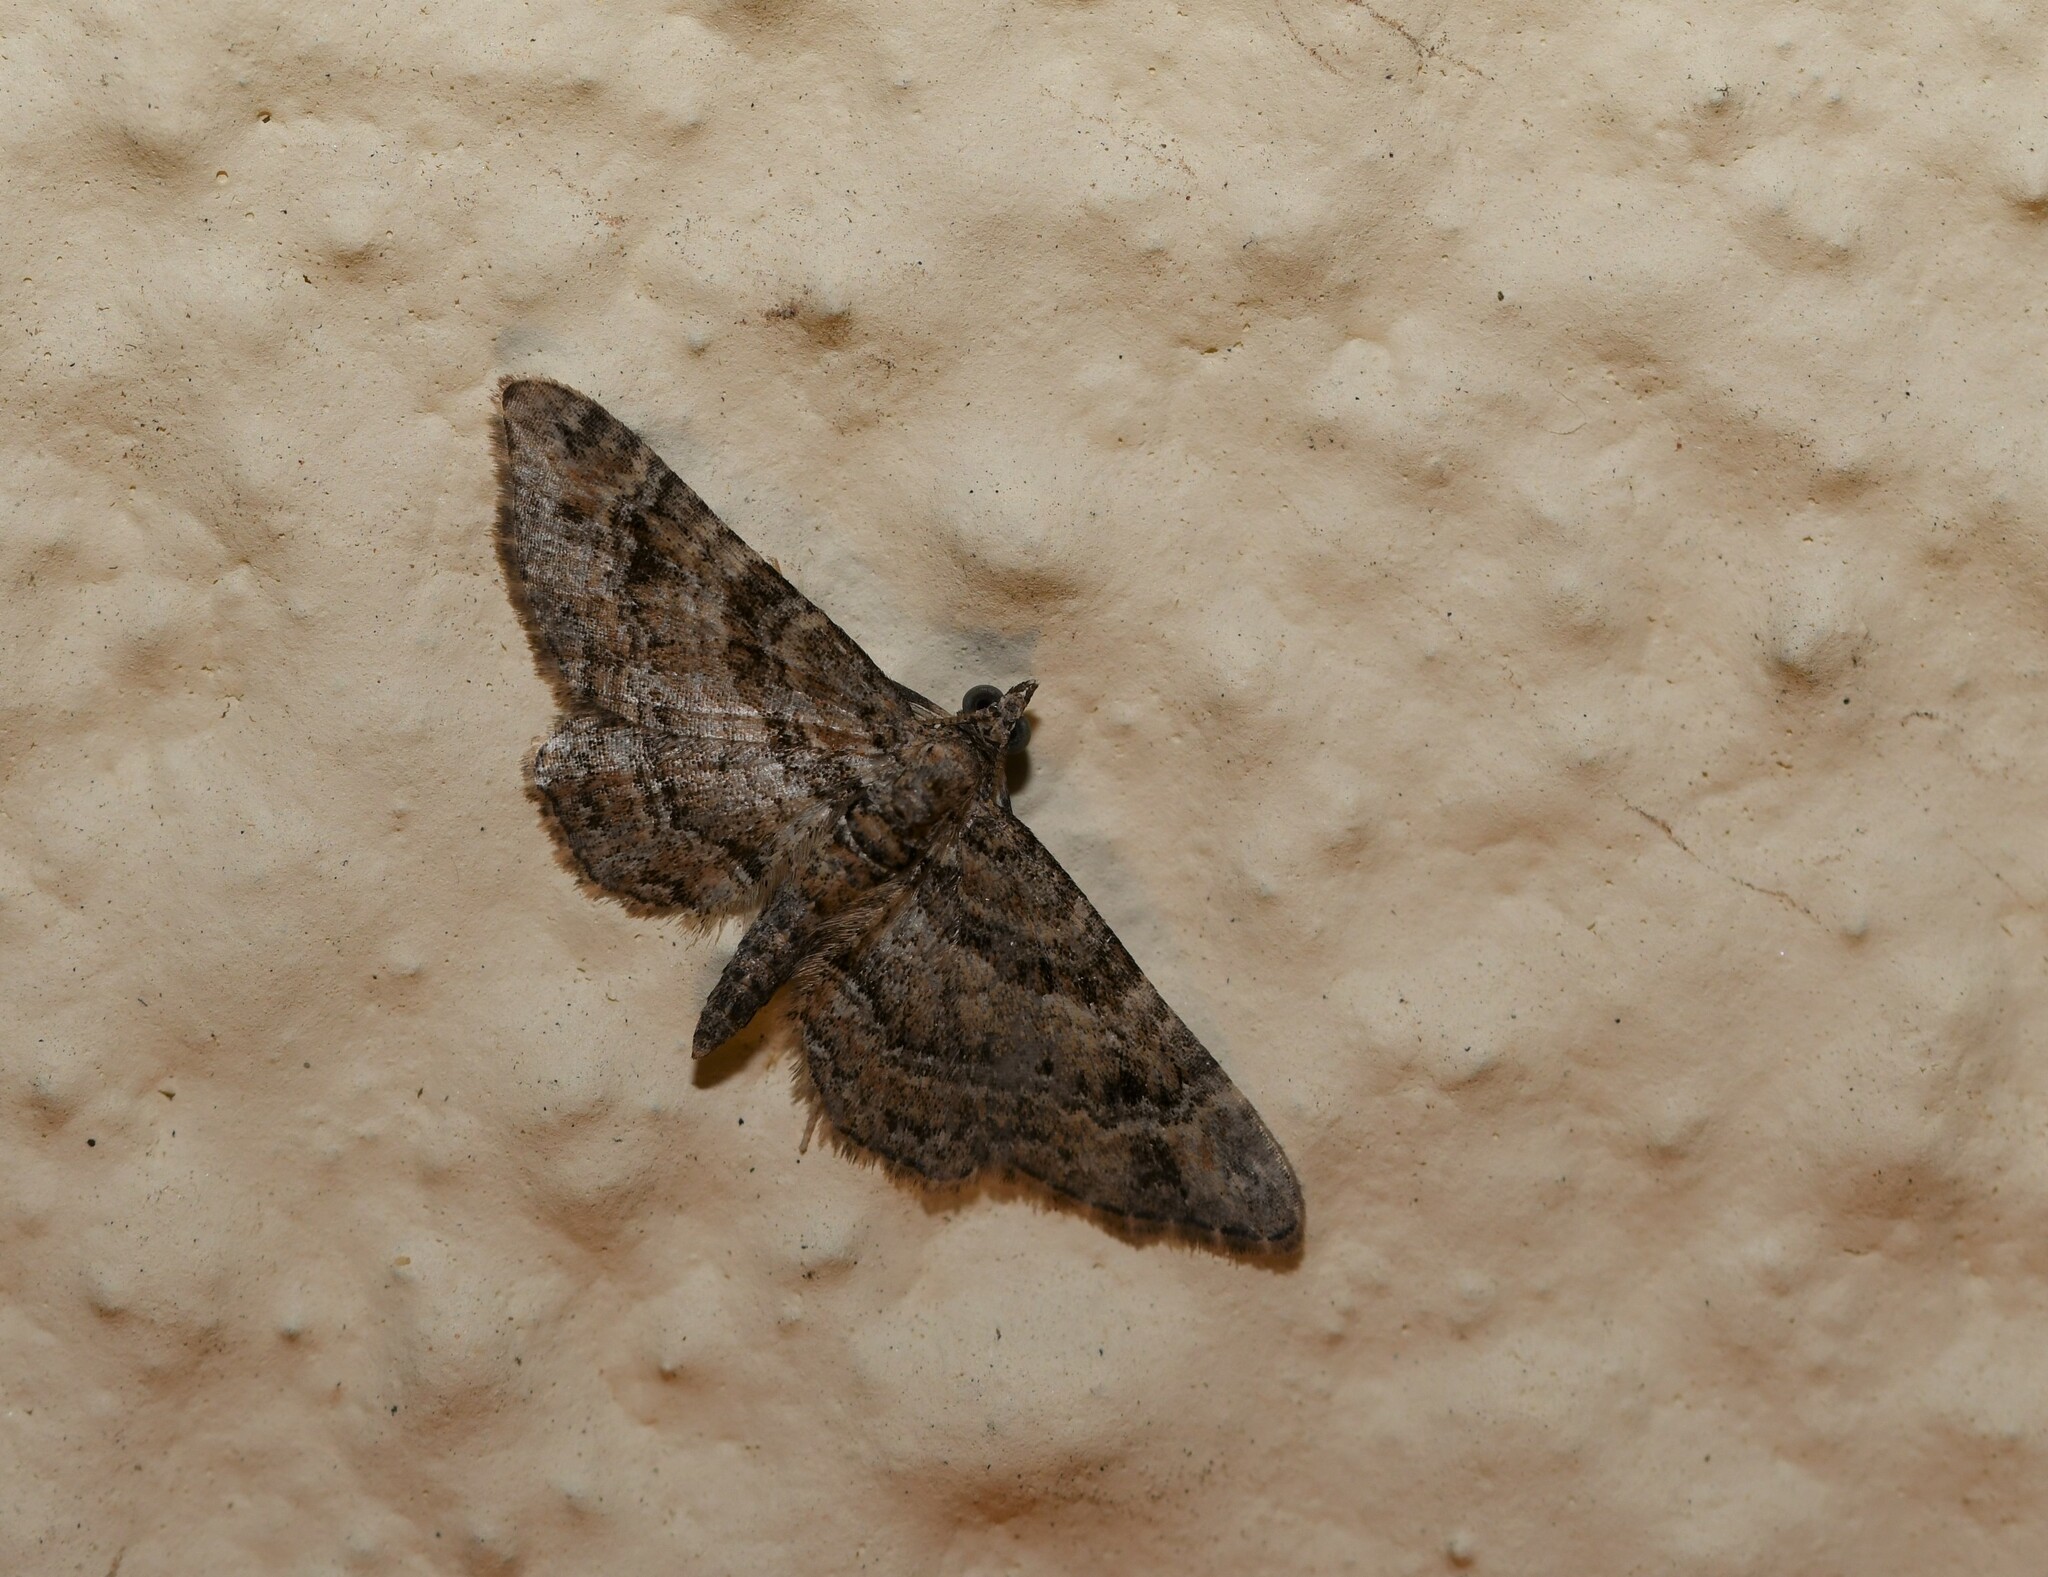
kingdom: Animalia
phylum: Arthropoda
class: Insecta
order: Lepidoptera
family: Geometridae
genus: Gymnoscelis
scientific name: Gymnoscelis rufifasciata
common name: Double-striped pug
